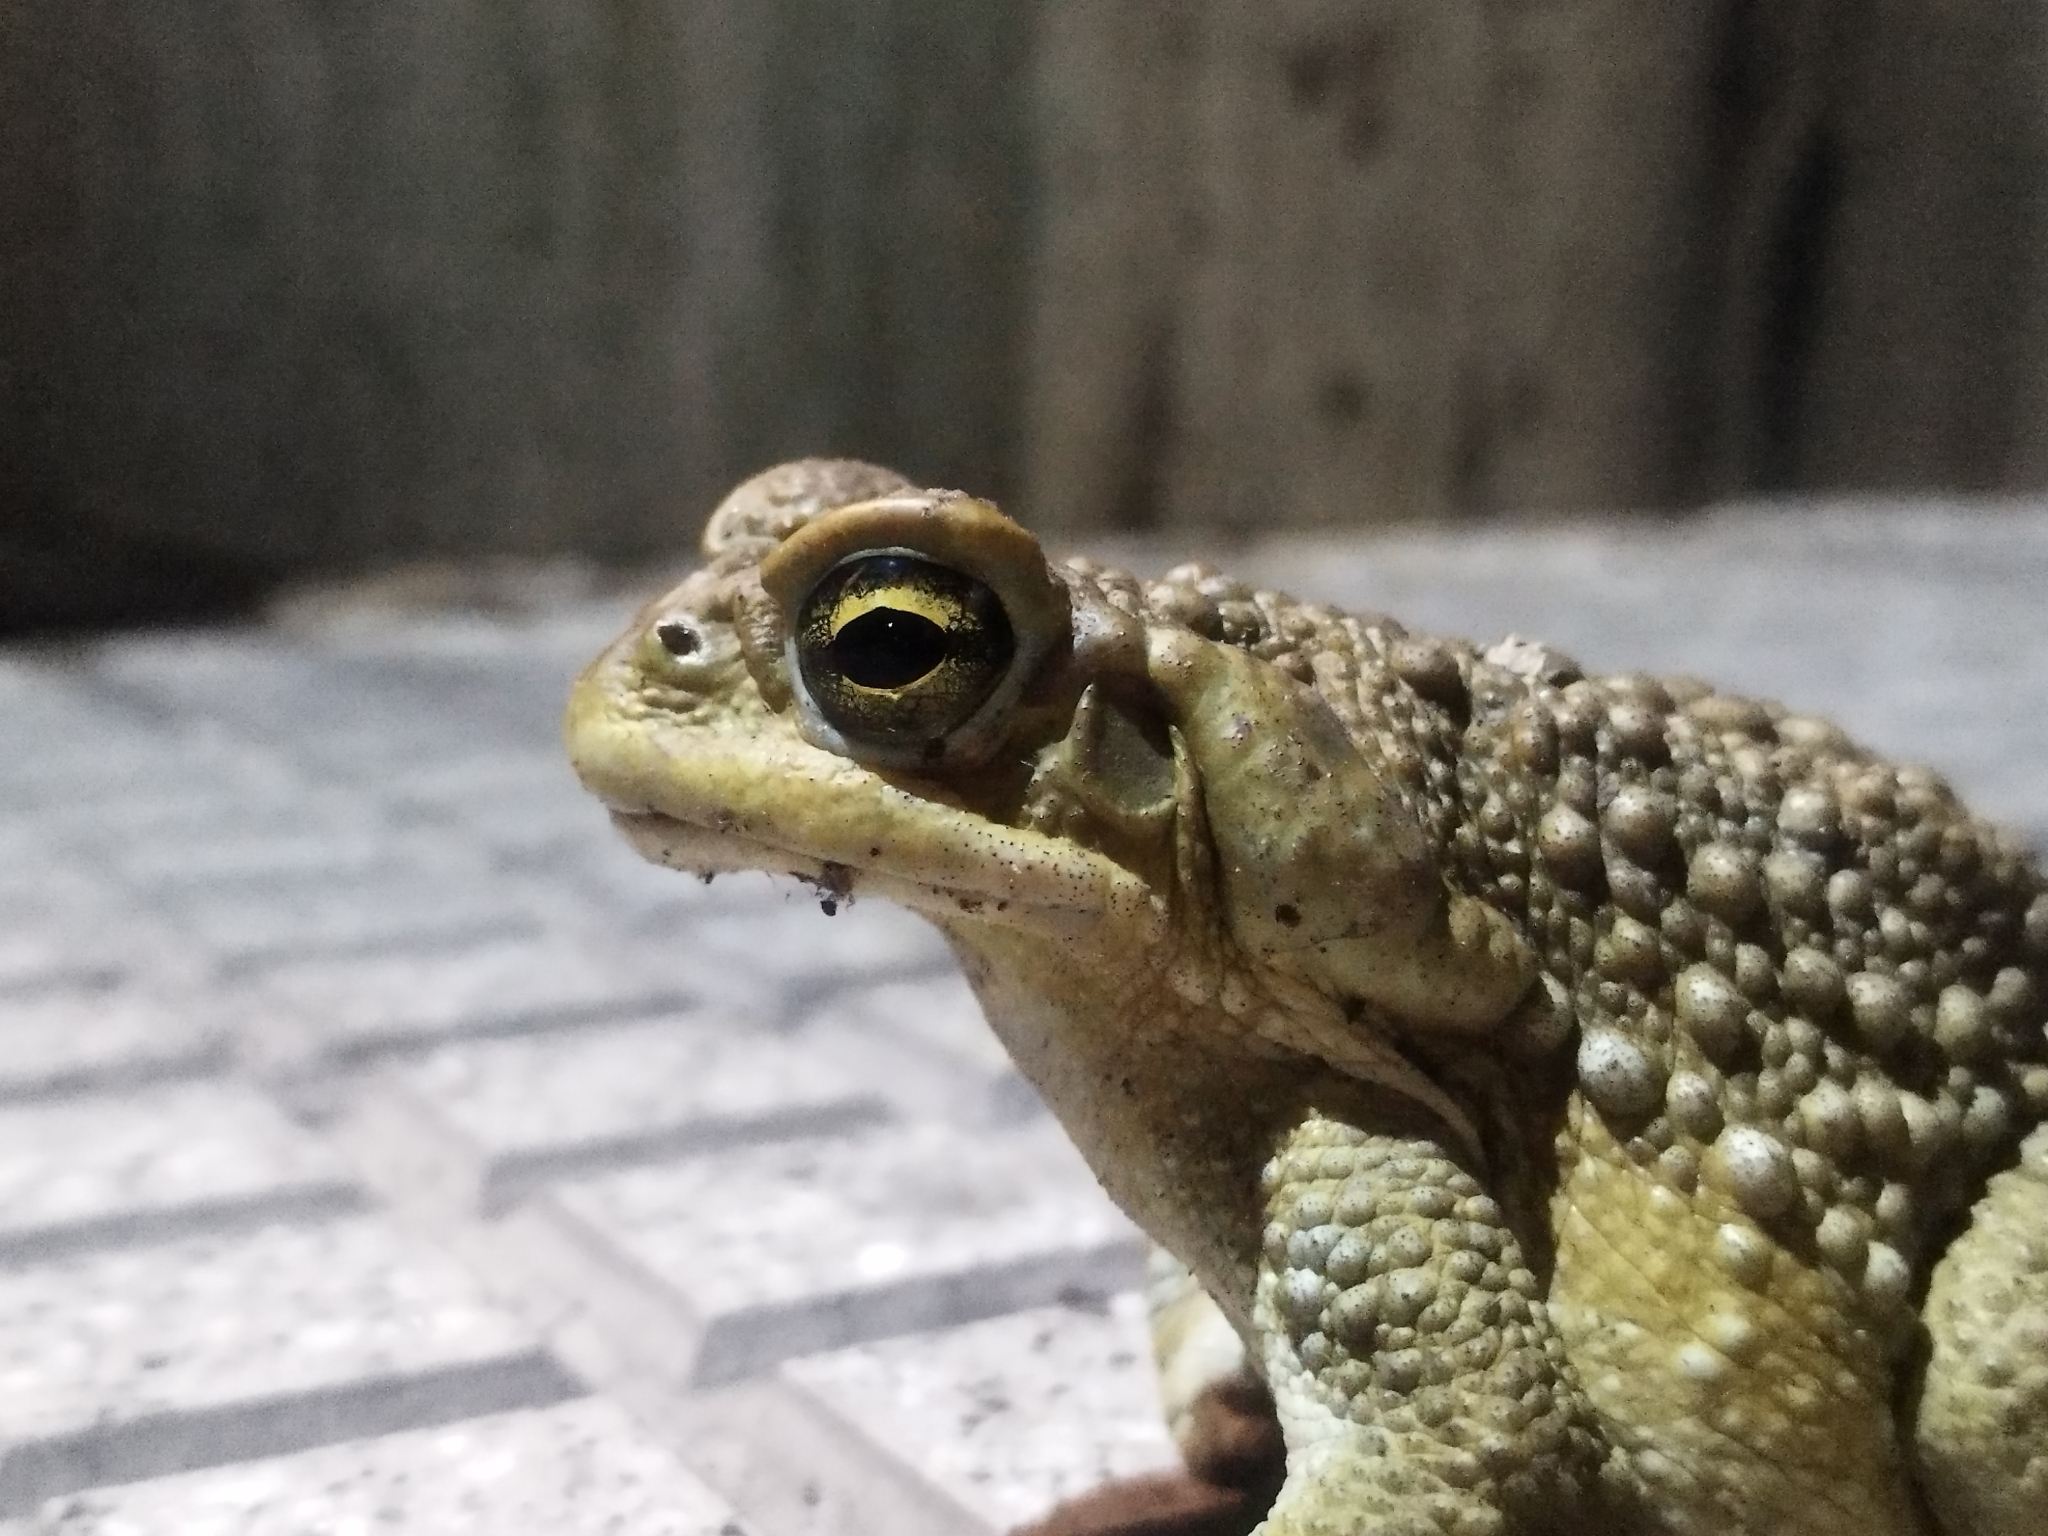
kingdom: Animalia
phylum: Chordata
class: Amphibia
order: Anura
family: Bufonidae
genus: Rhinella
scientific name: Rhinella arenarum
